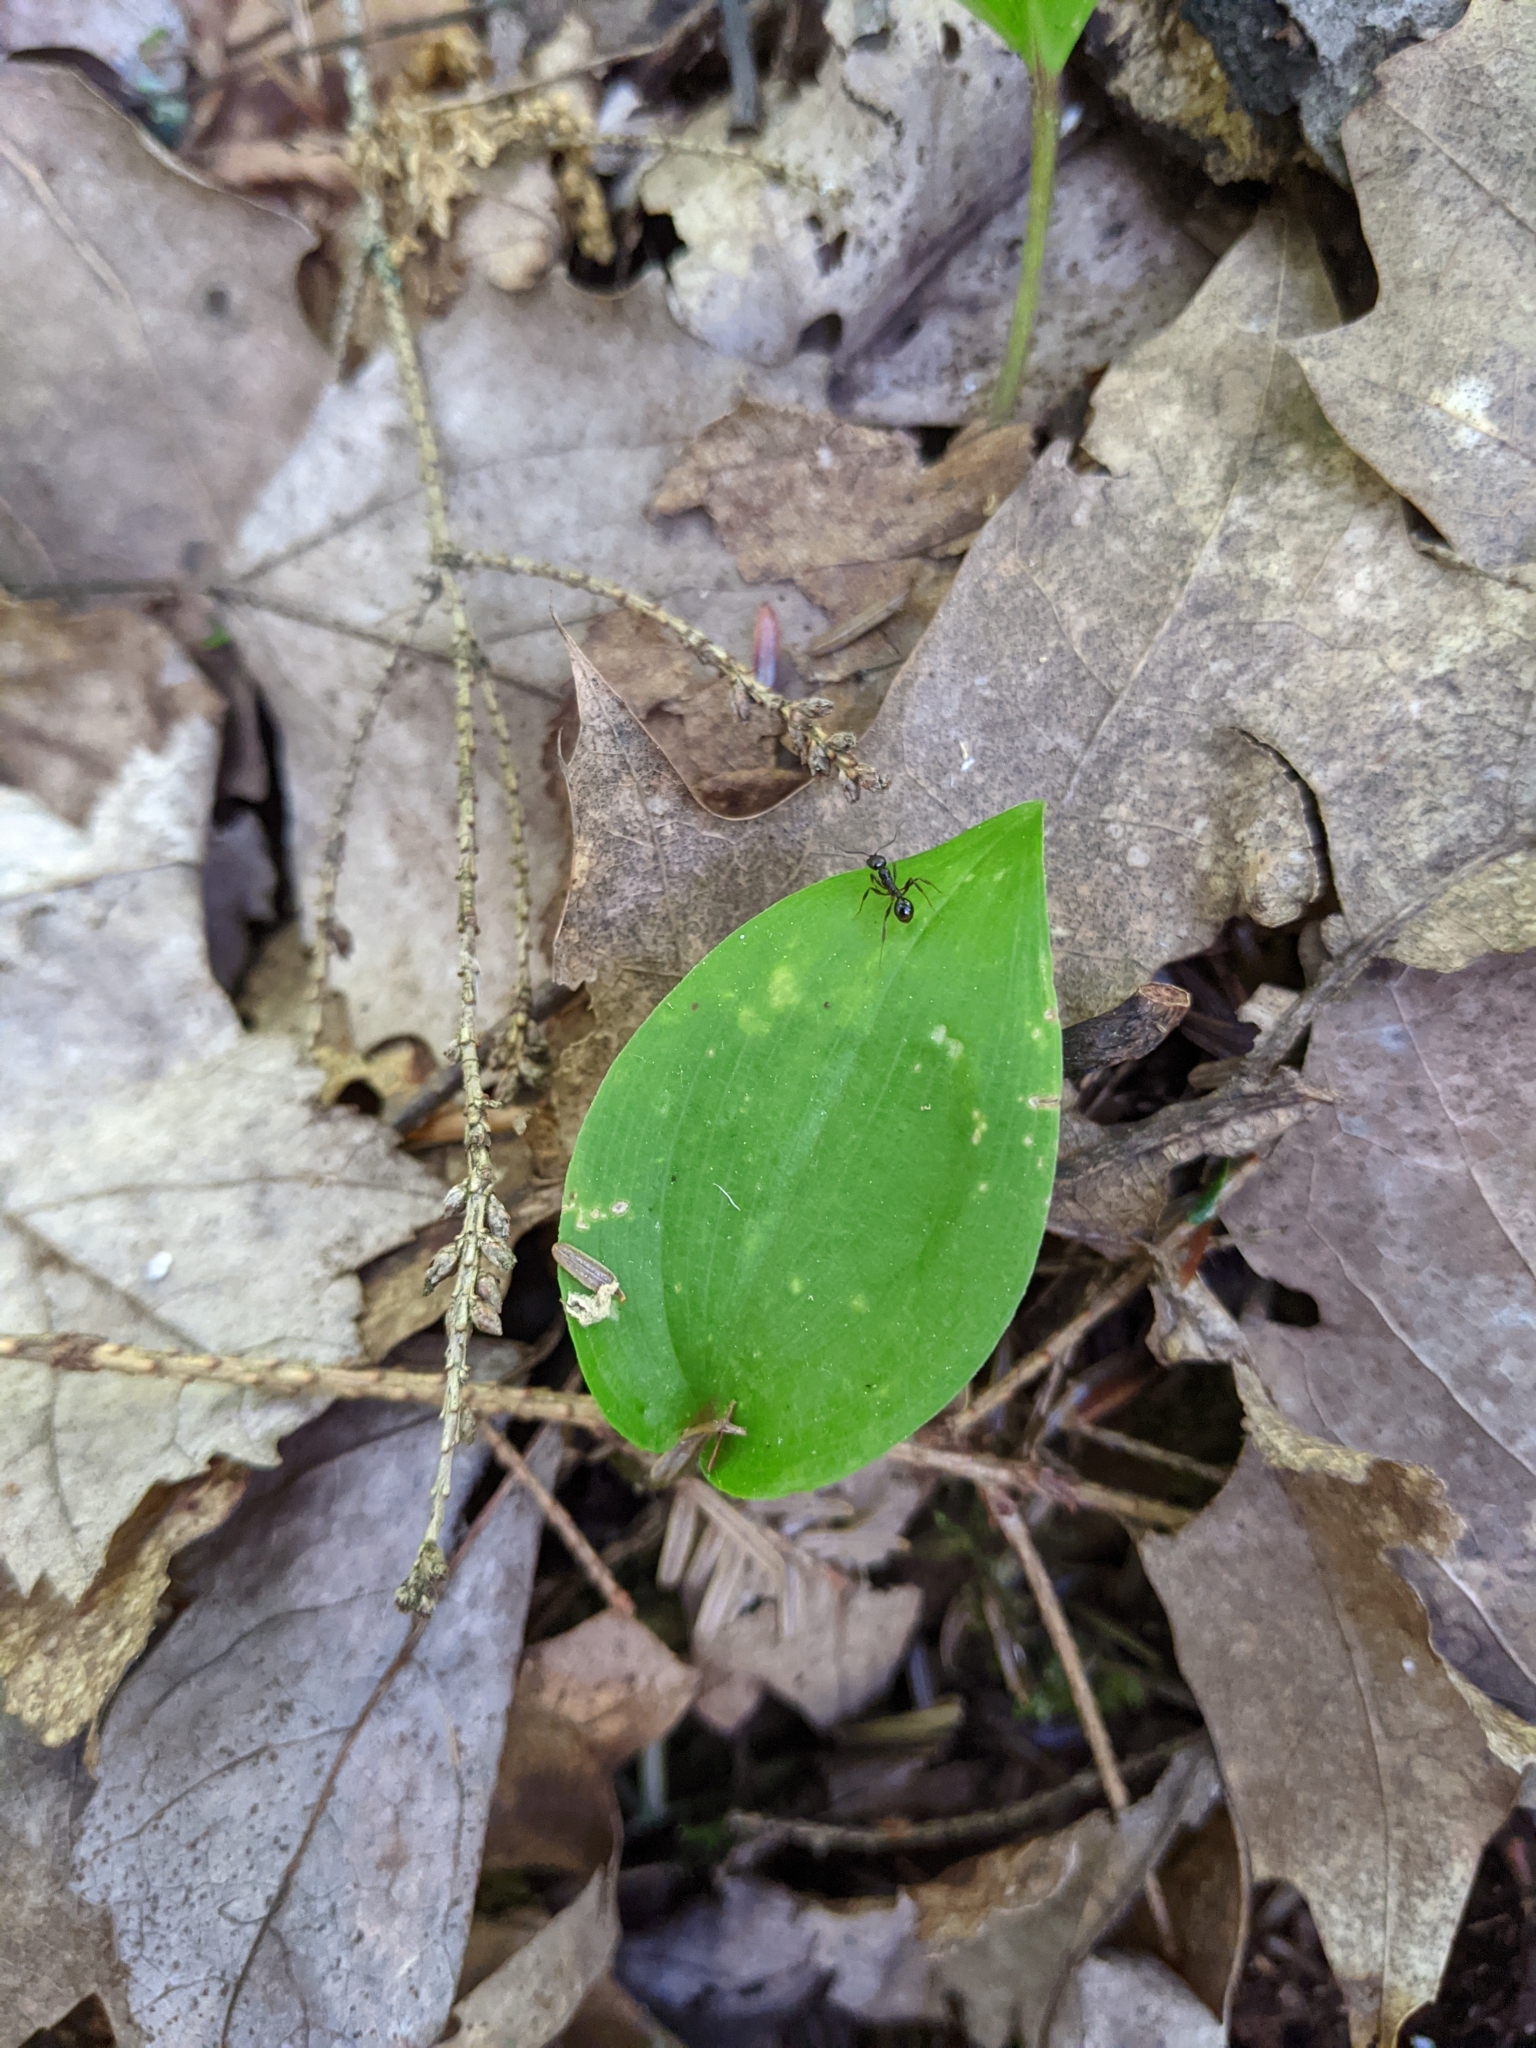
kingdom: Animalia
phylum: Arthropoda
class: Insecta
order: Hymenoptera
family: Formicidae
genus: Aphaenogaster
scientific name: Aphaenogaster picea
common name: Pitch-black collared ant
